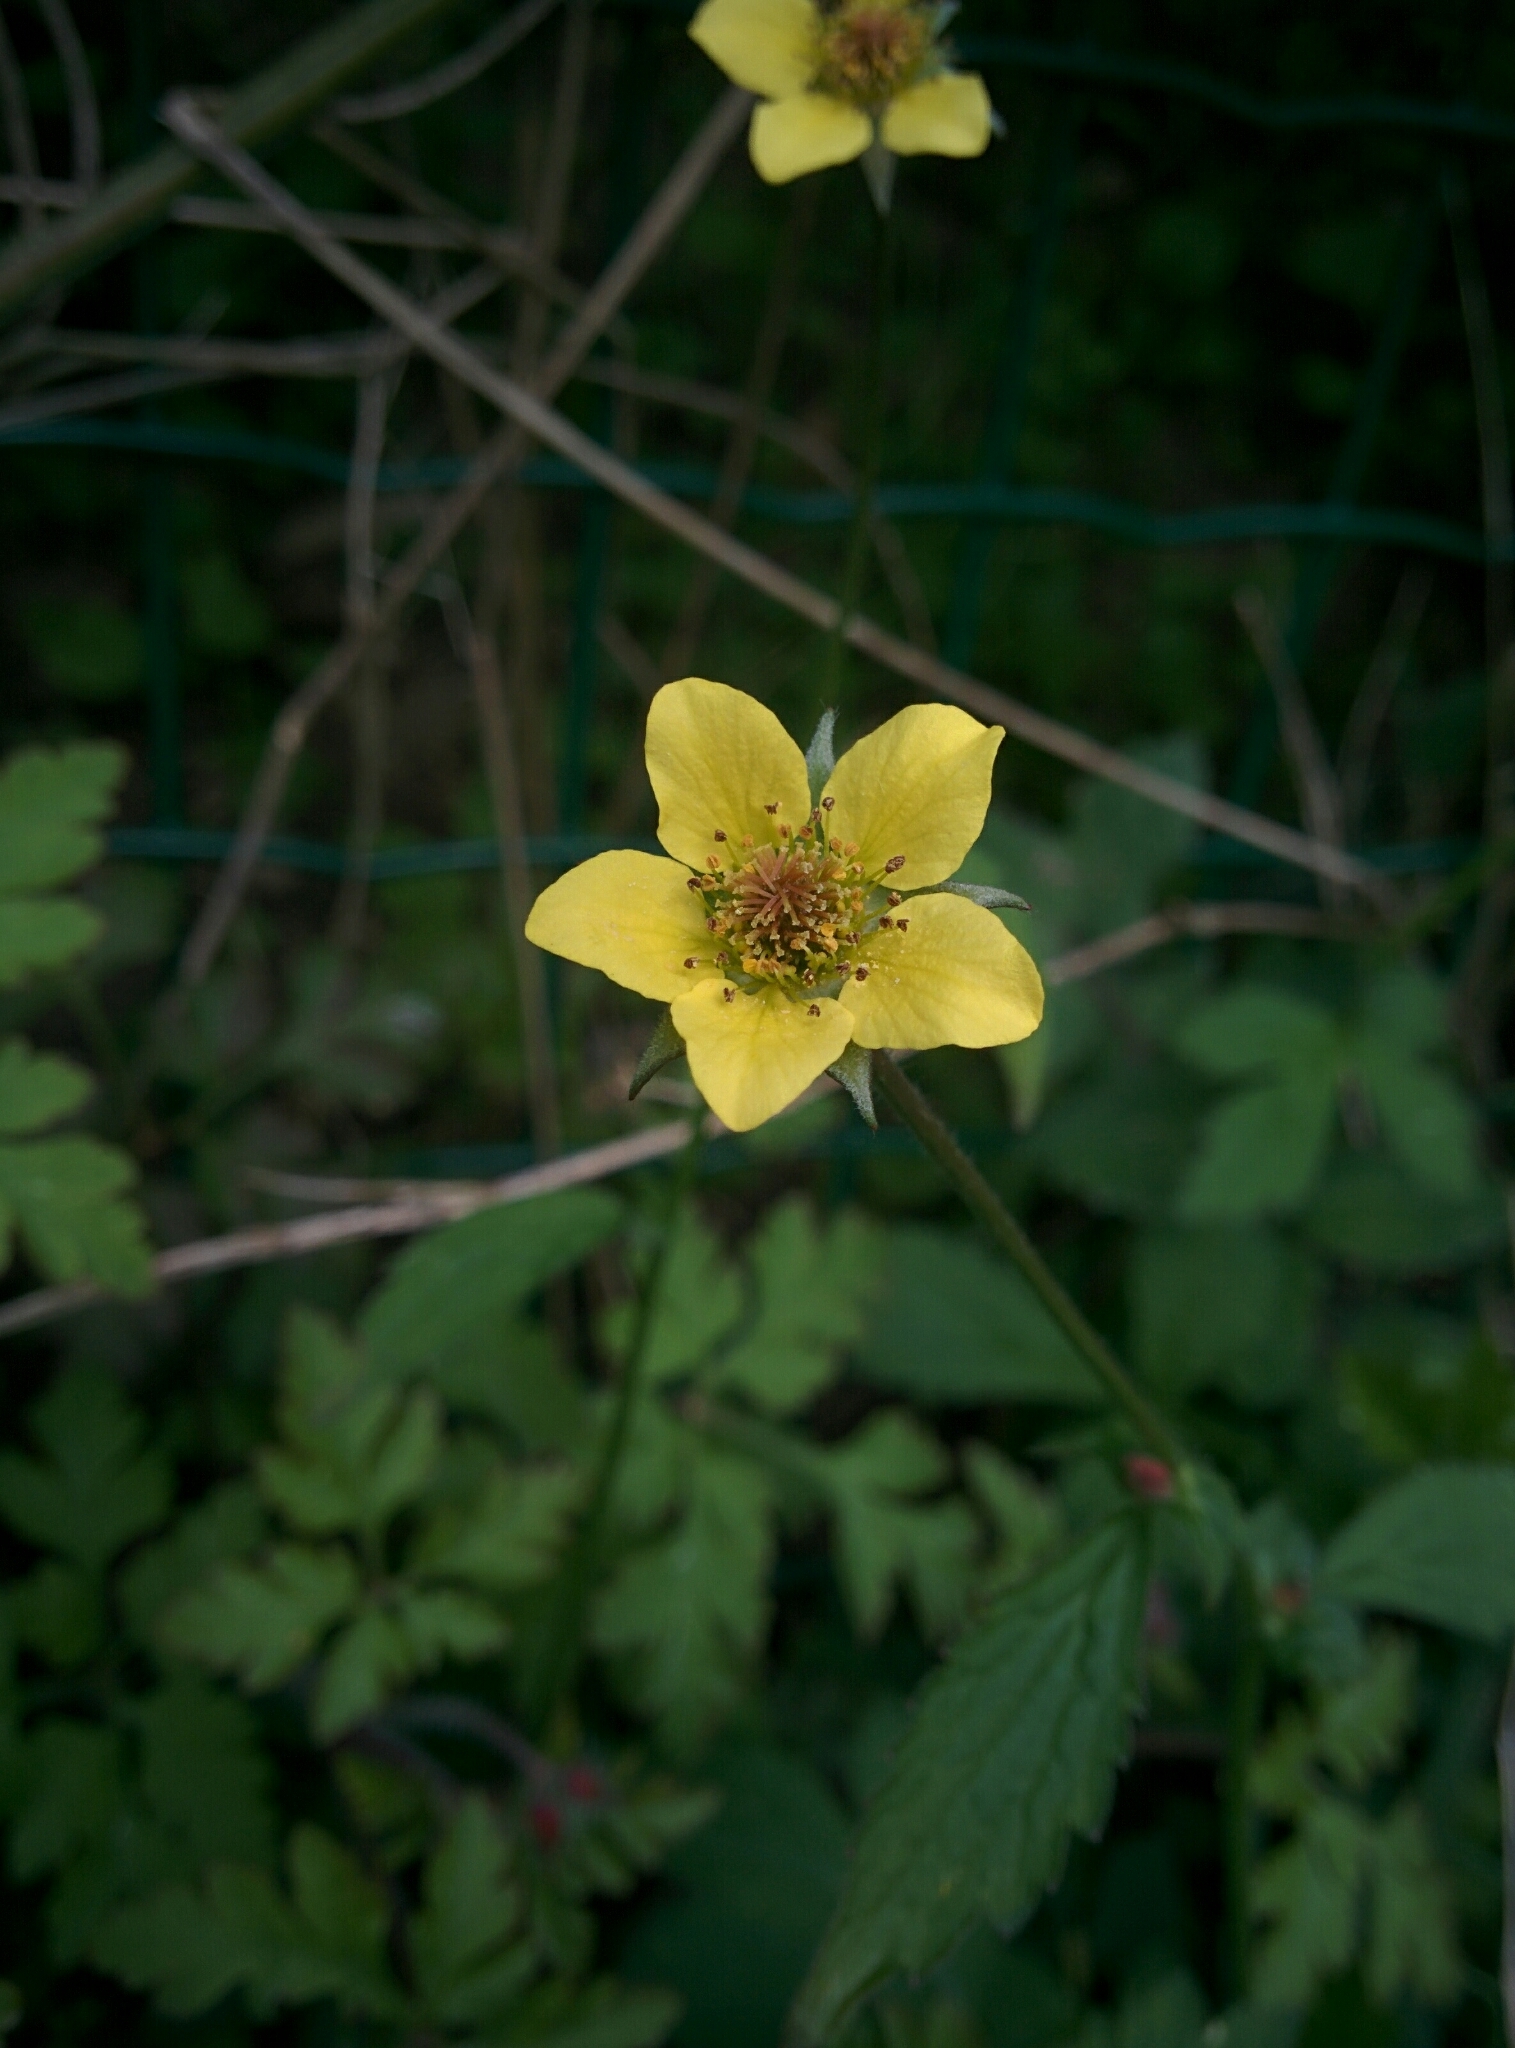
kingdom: Plantae
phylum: Tracheophyta
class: Magnoliopsida
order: Rosales
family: Rosaceae
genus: Geum
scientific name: Geum urbanum
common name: Wood avens
